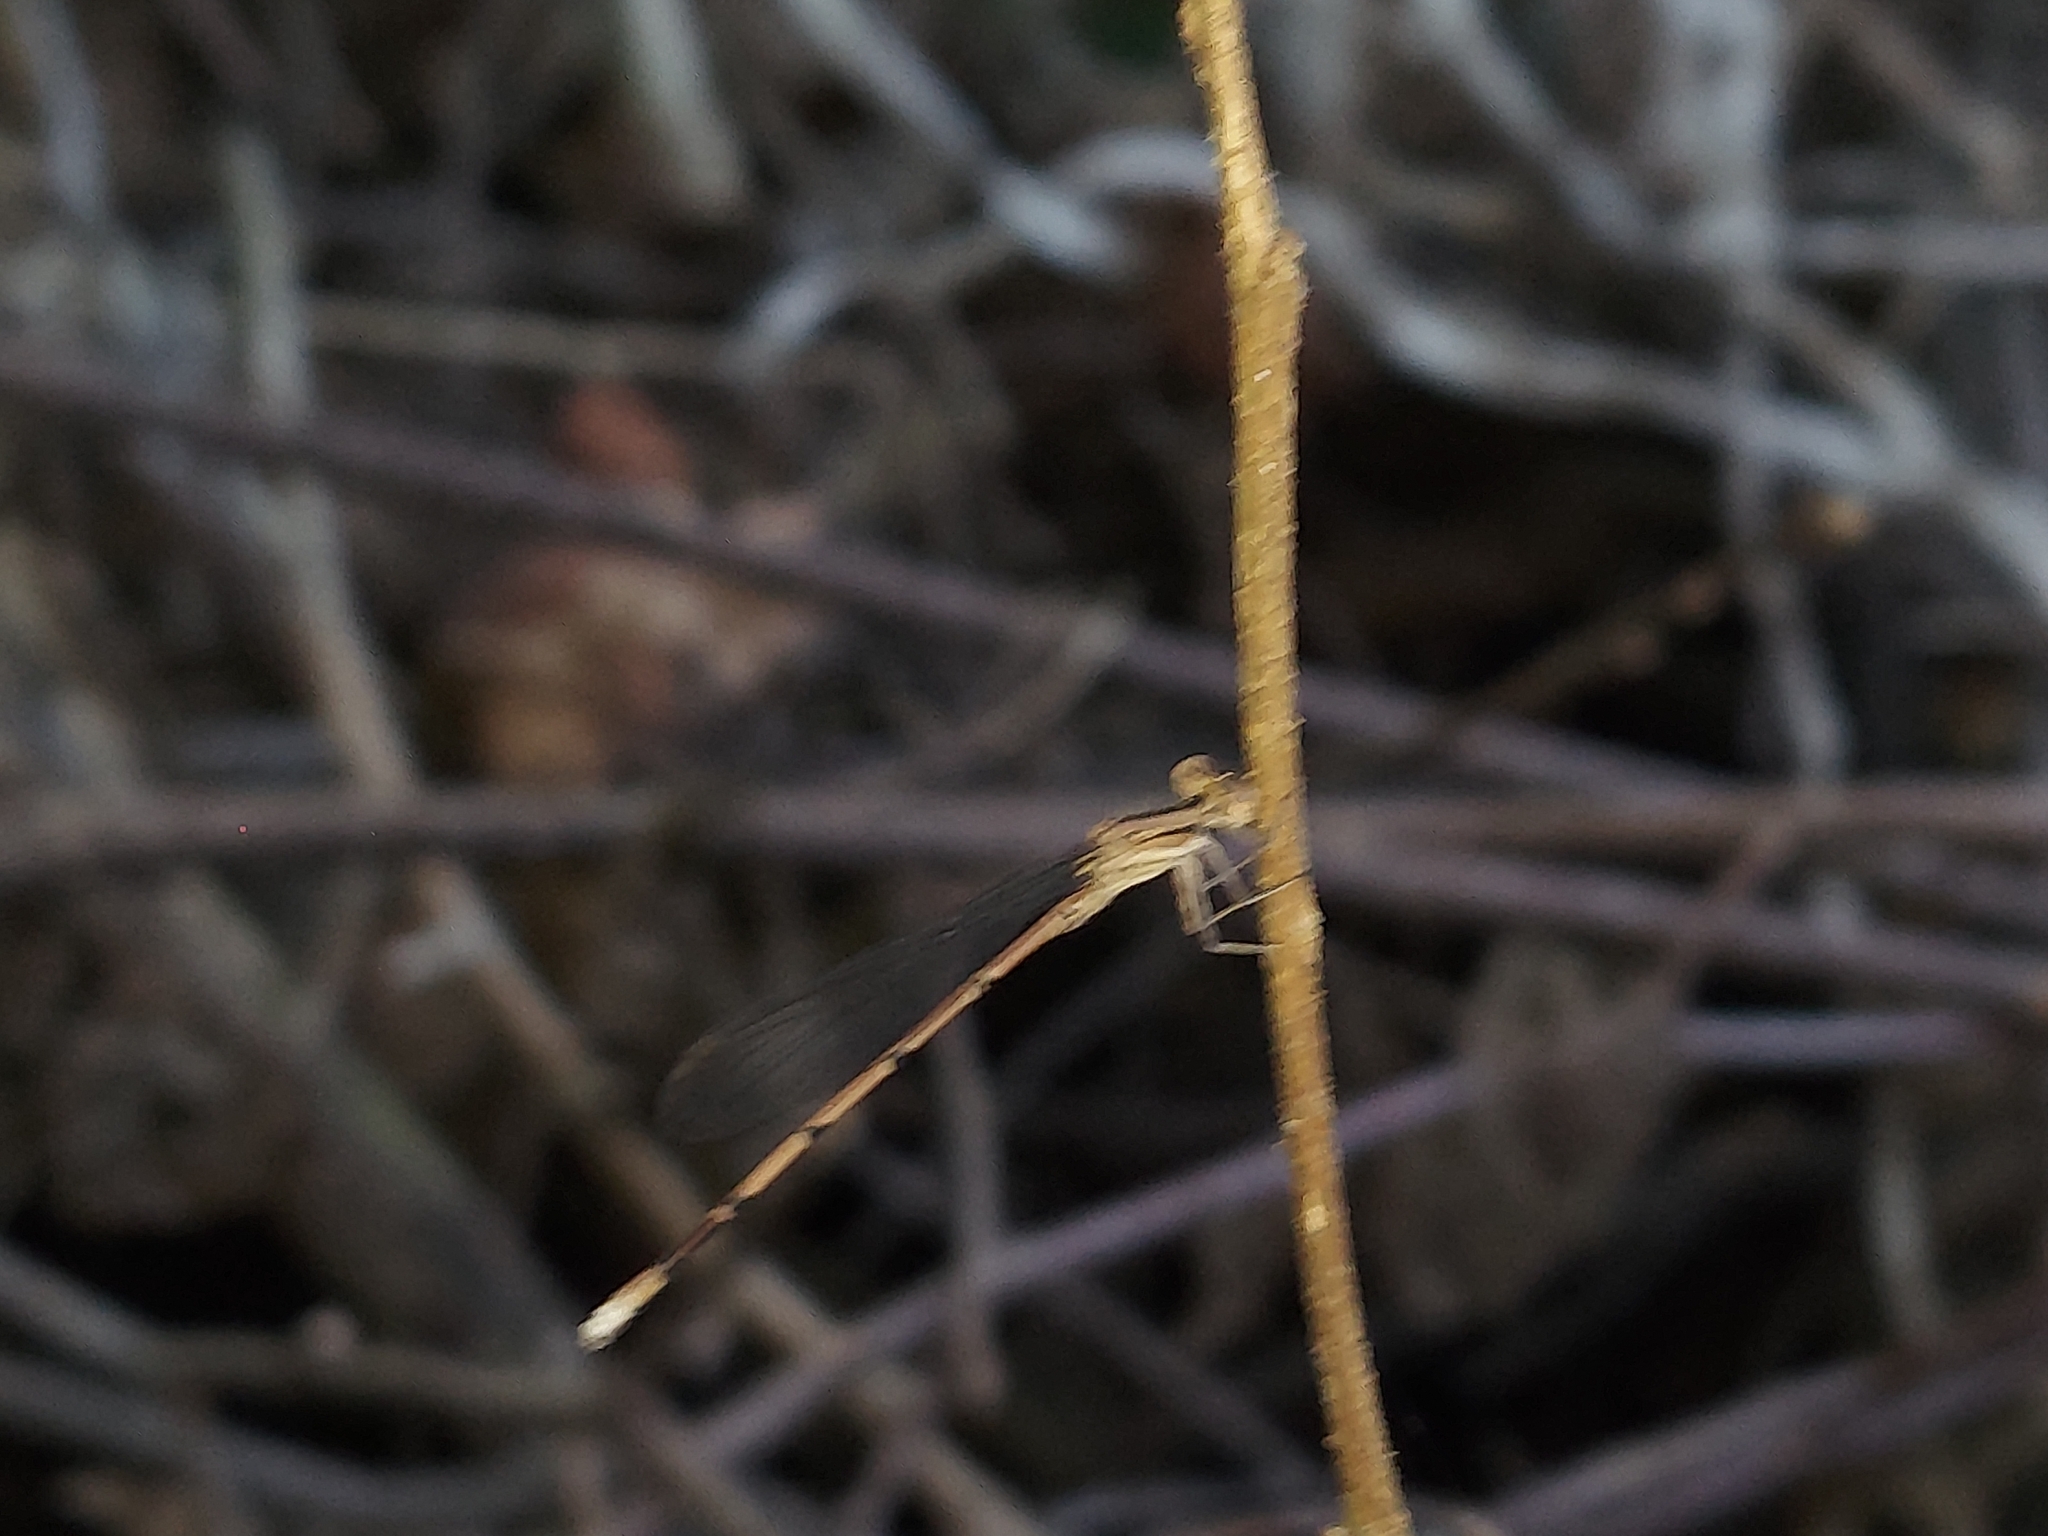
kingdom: Animalia
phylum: Arthropoda
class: Insecta
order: Odonata
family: Coenagrionidae
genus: Argia
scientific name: Argia fumipennis
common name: Variable dancer
